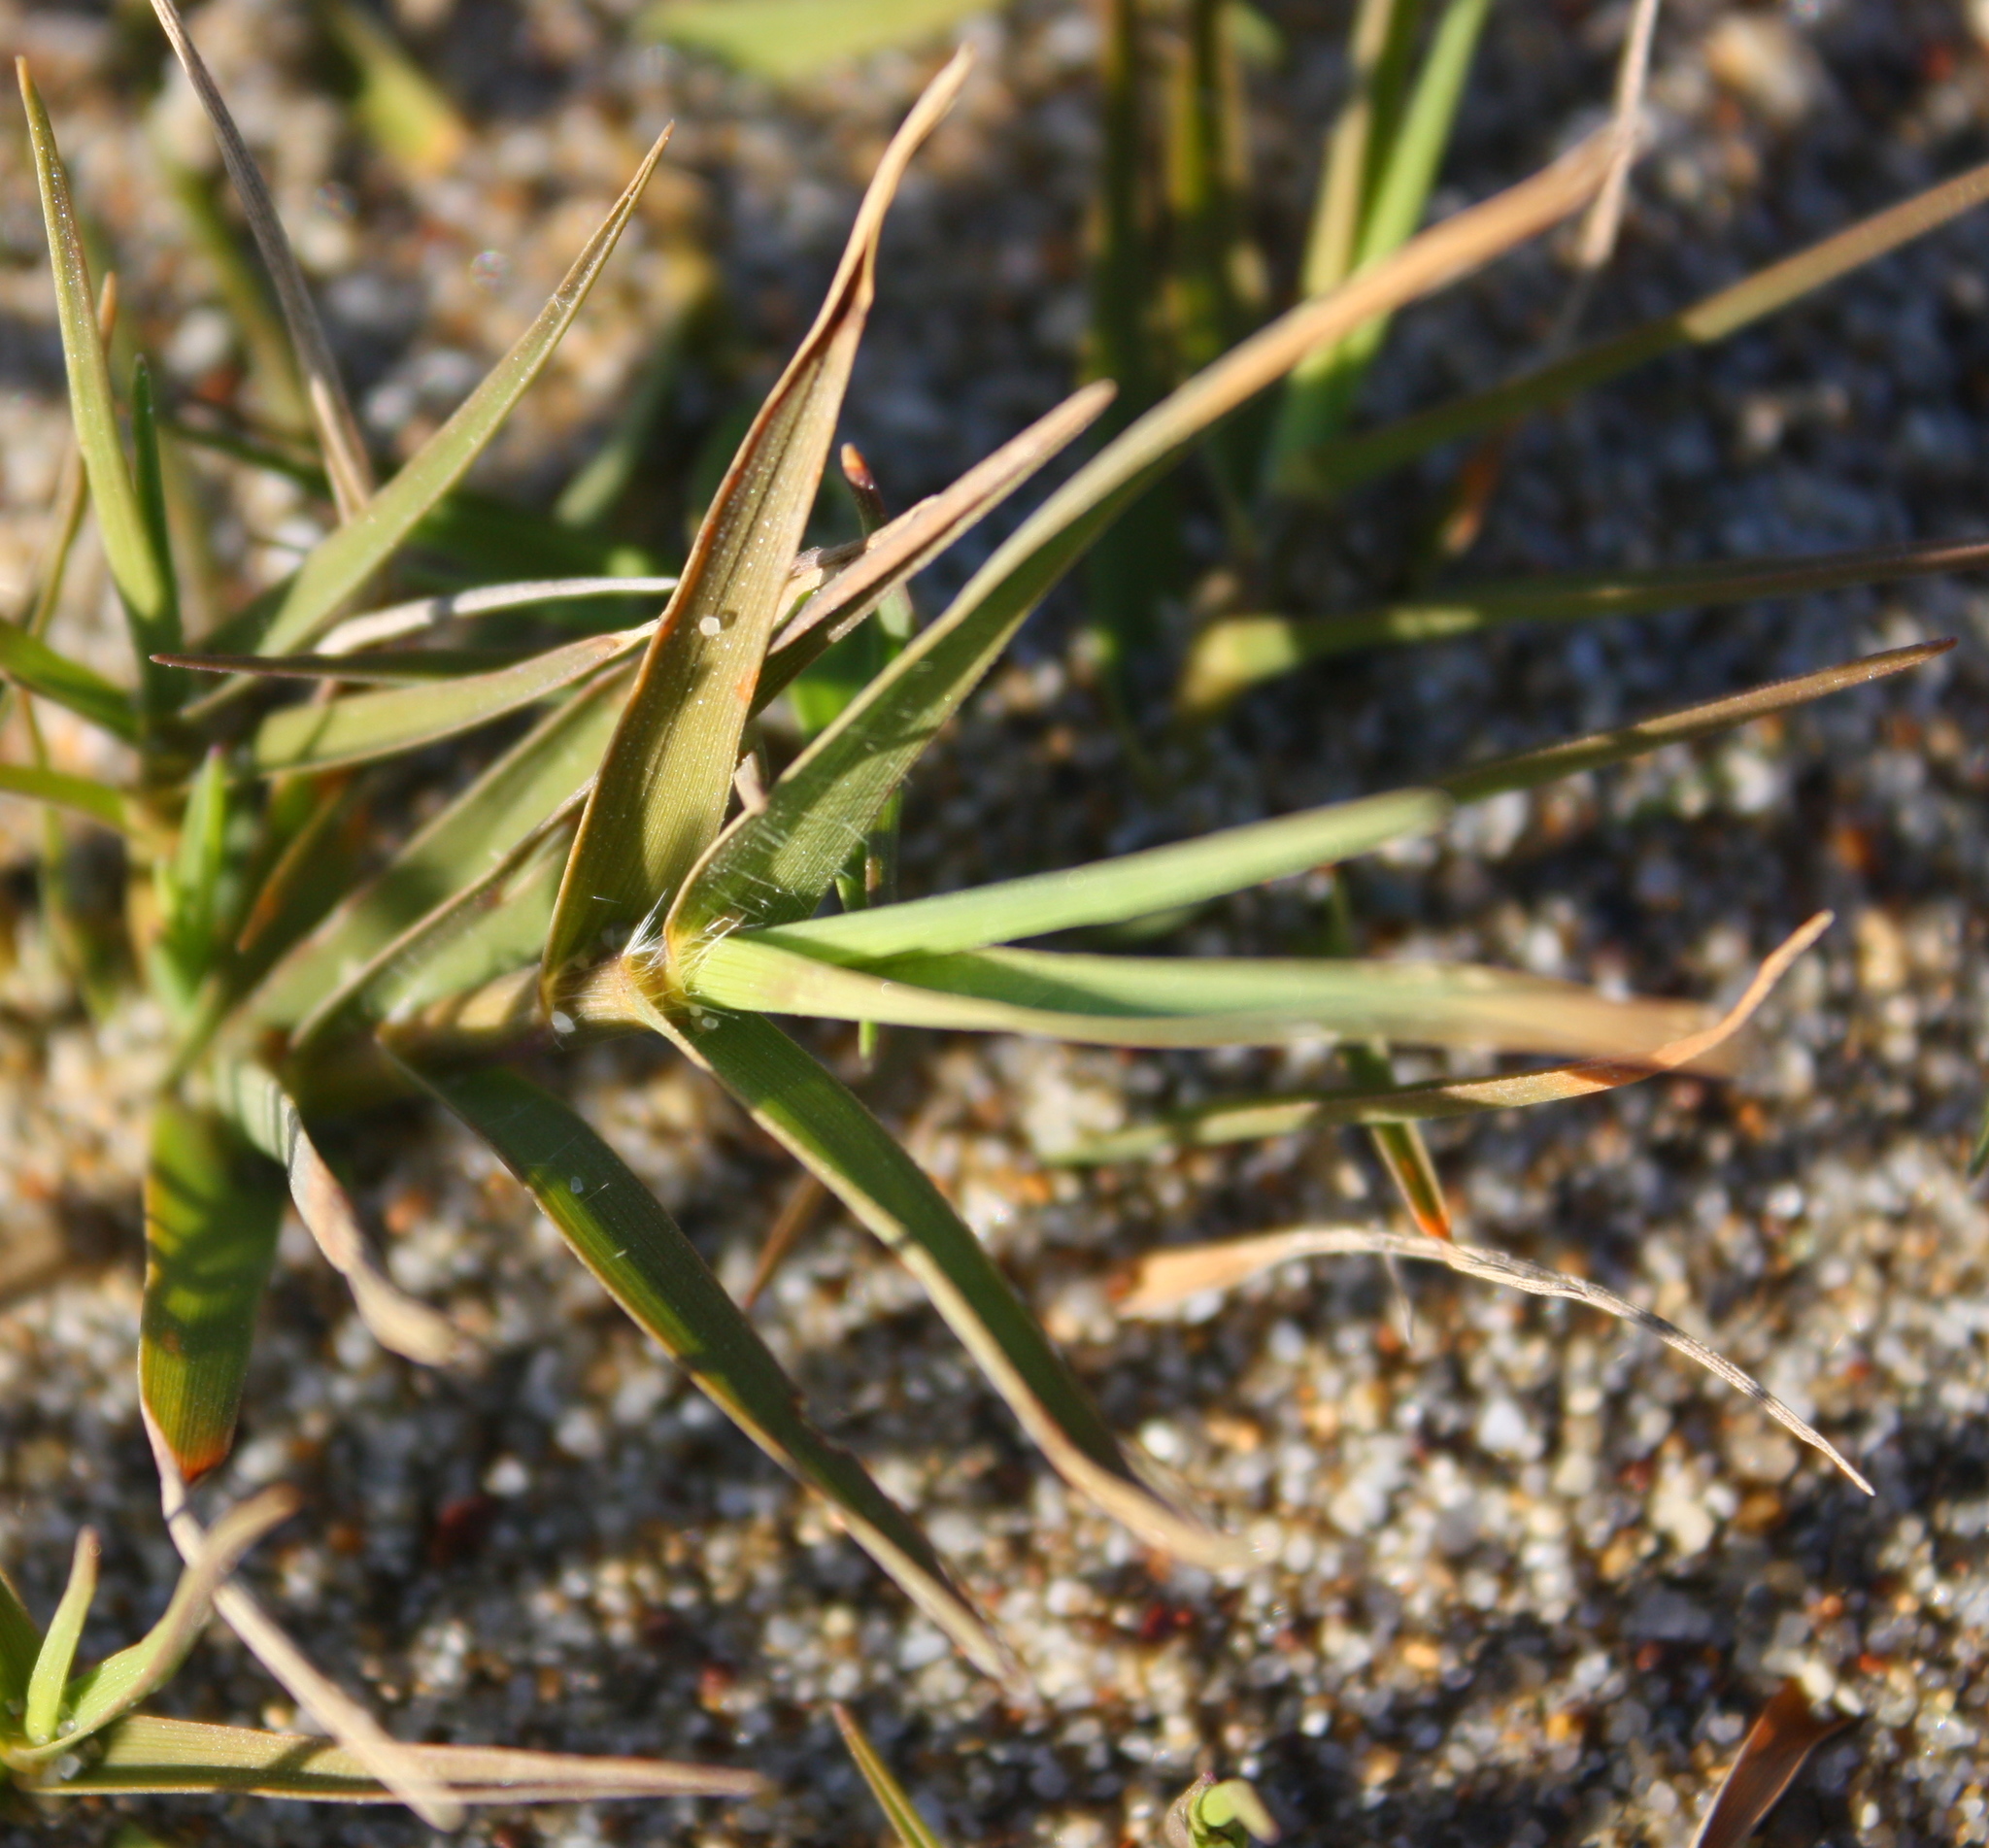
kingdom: Plantae
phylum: Tracheophyta
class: Liliopsida
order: Poales
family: Poaceae
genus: Distichlis
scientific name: Distichlis spicata
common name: Saltgrass
